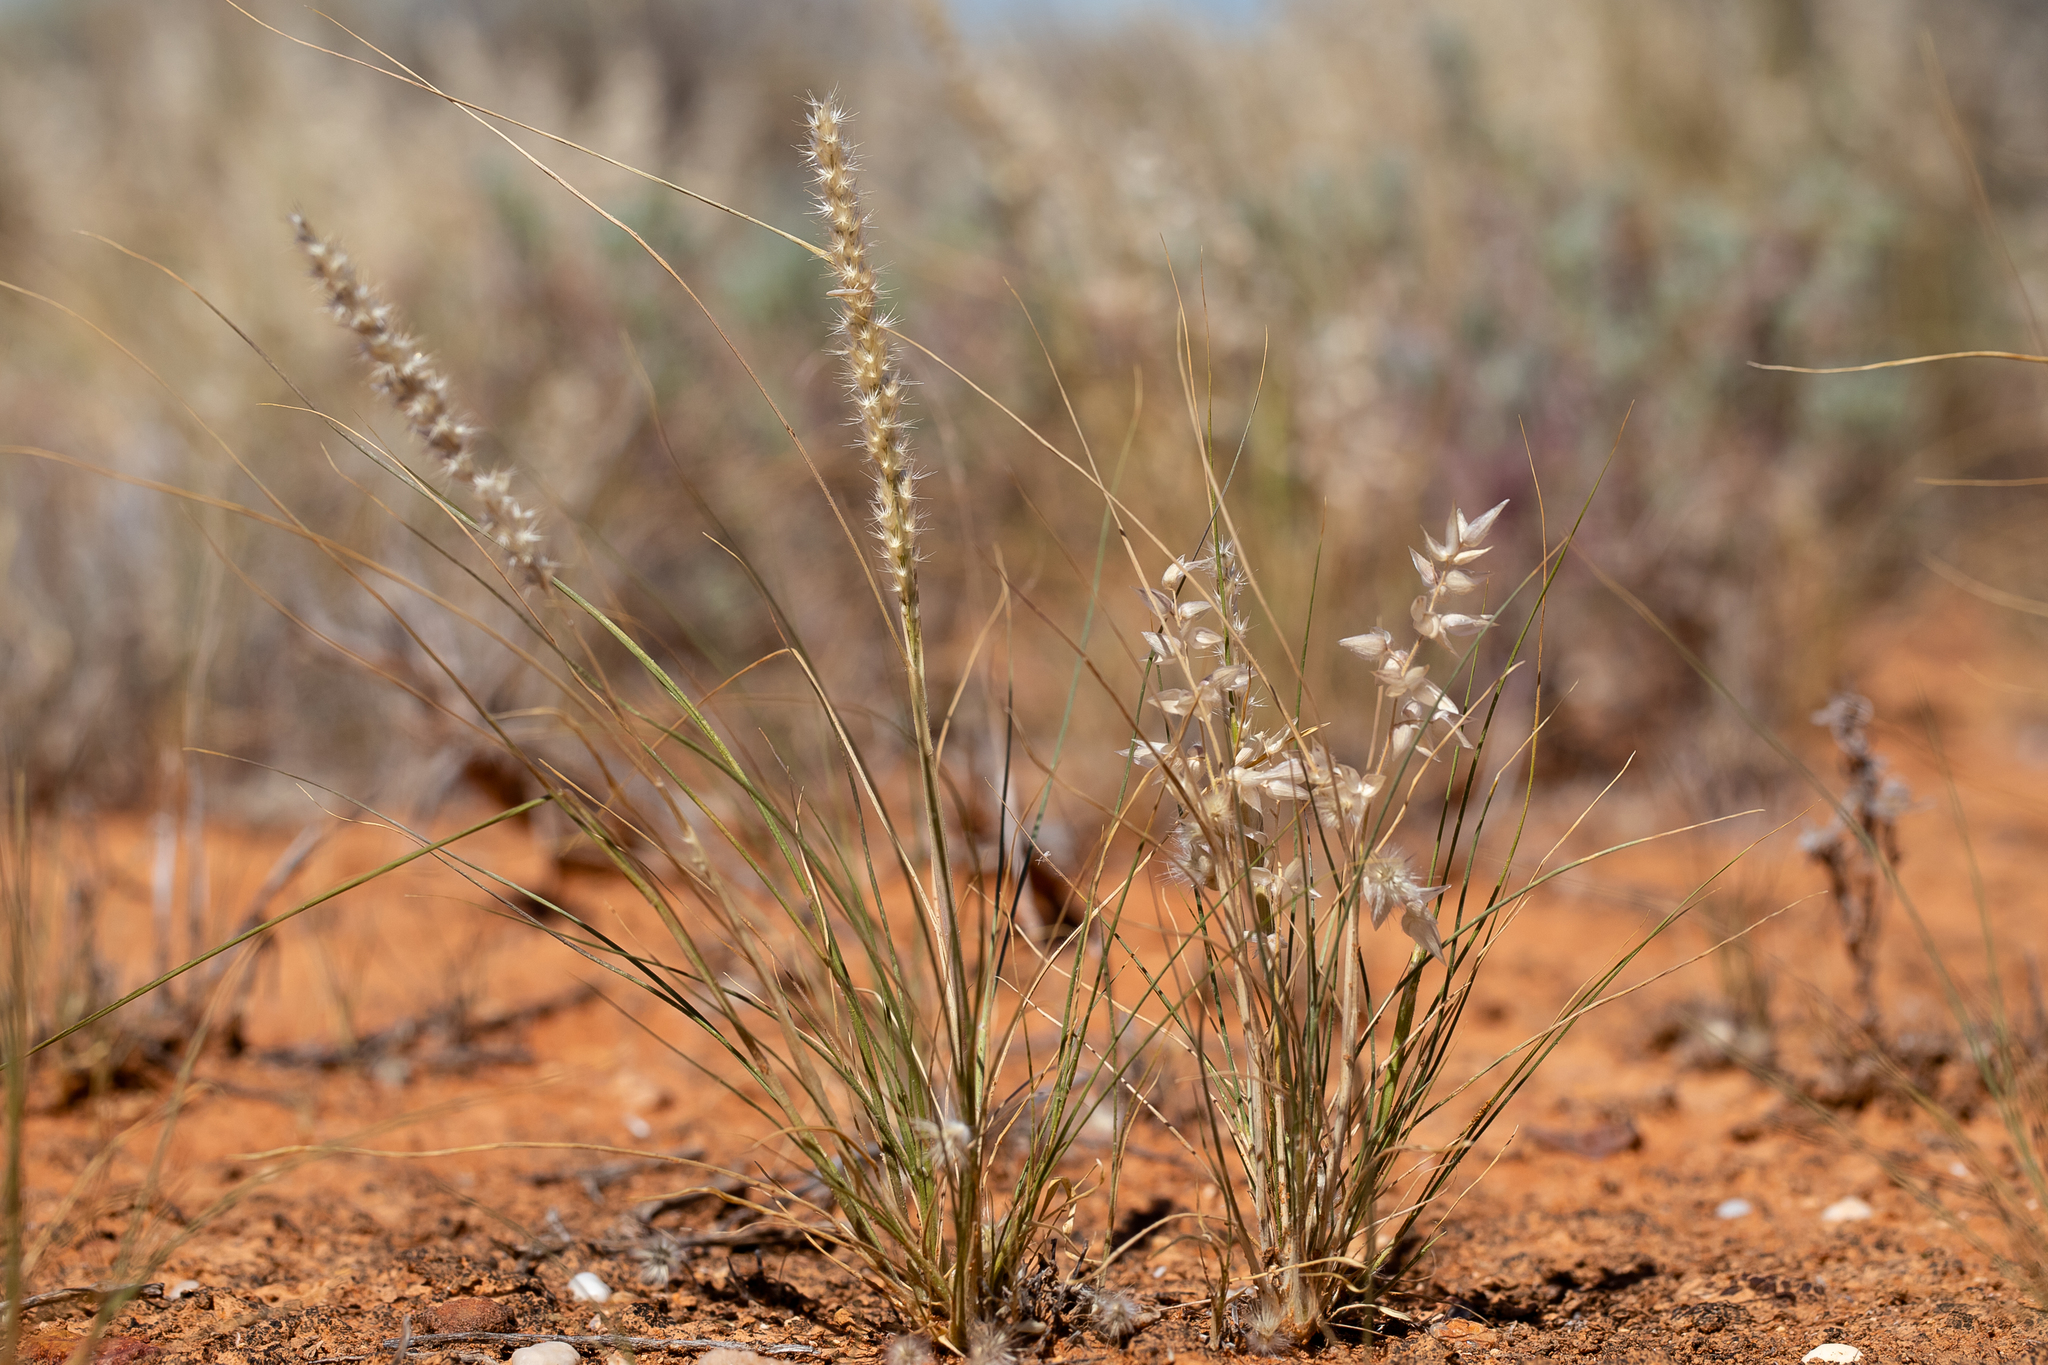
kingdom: Plantae
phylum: Tracheophyta
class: Liliopsida
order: Poales
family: Poaceae
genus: Enneapogon
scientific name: Enneapogon avenaceus
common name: Hairy oat grass
